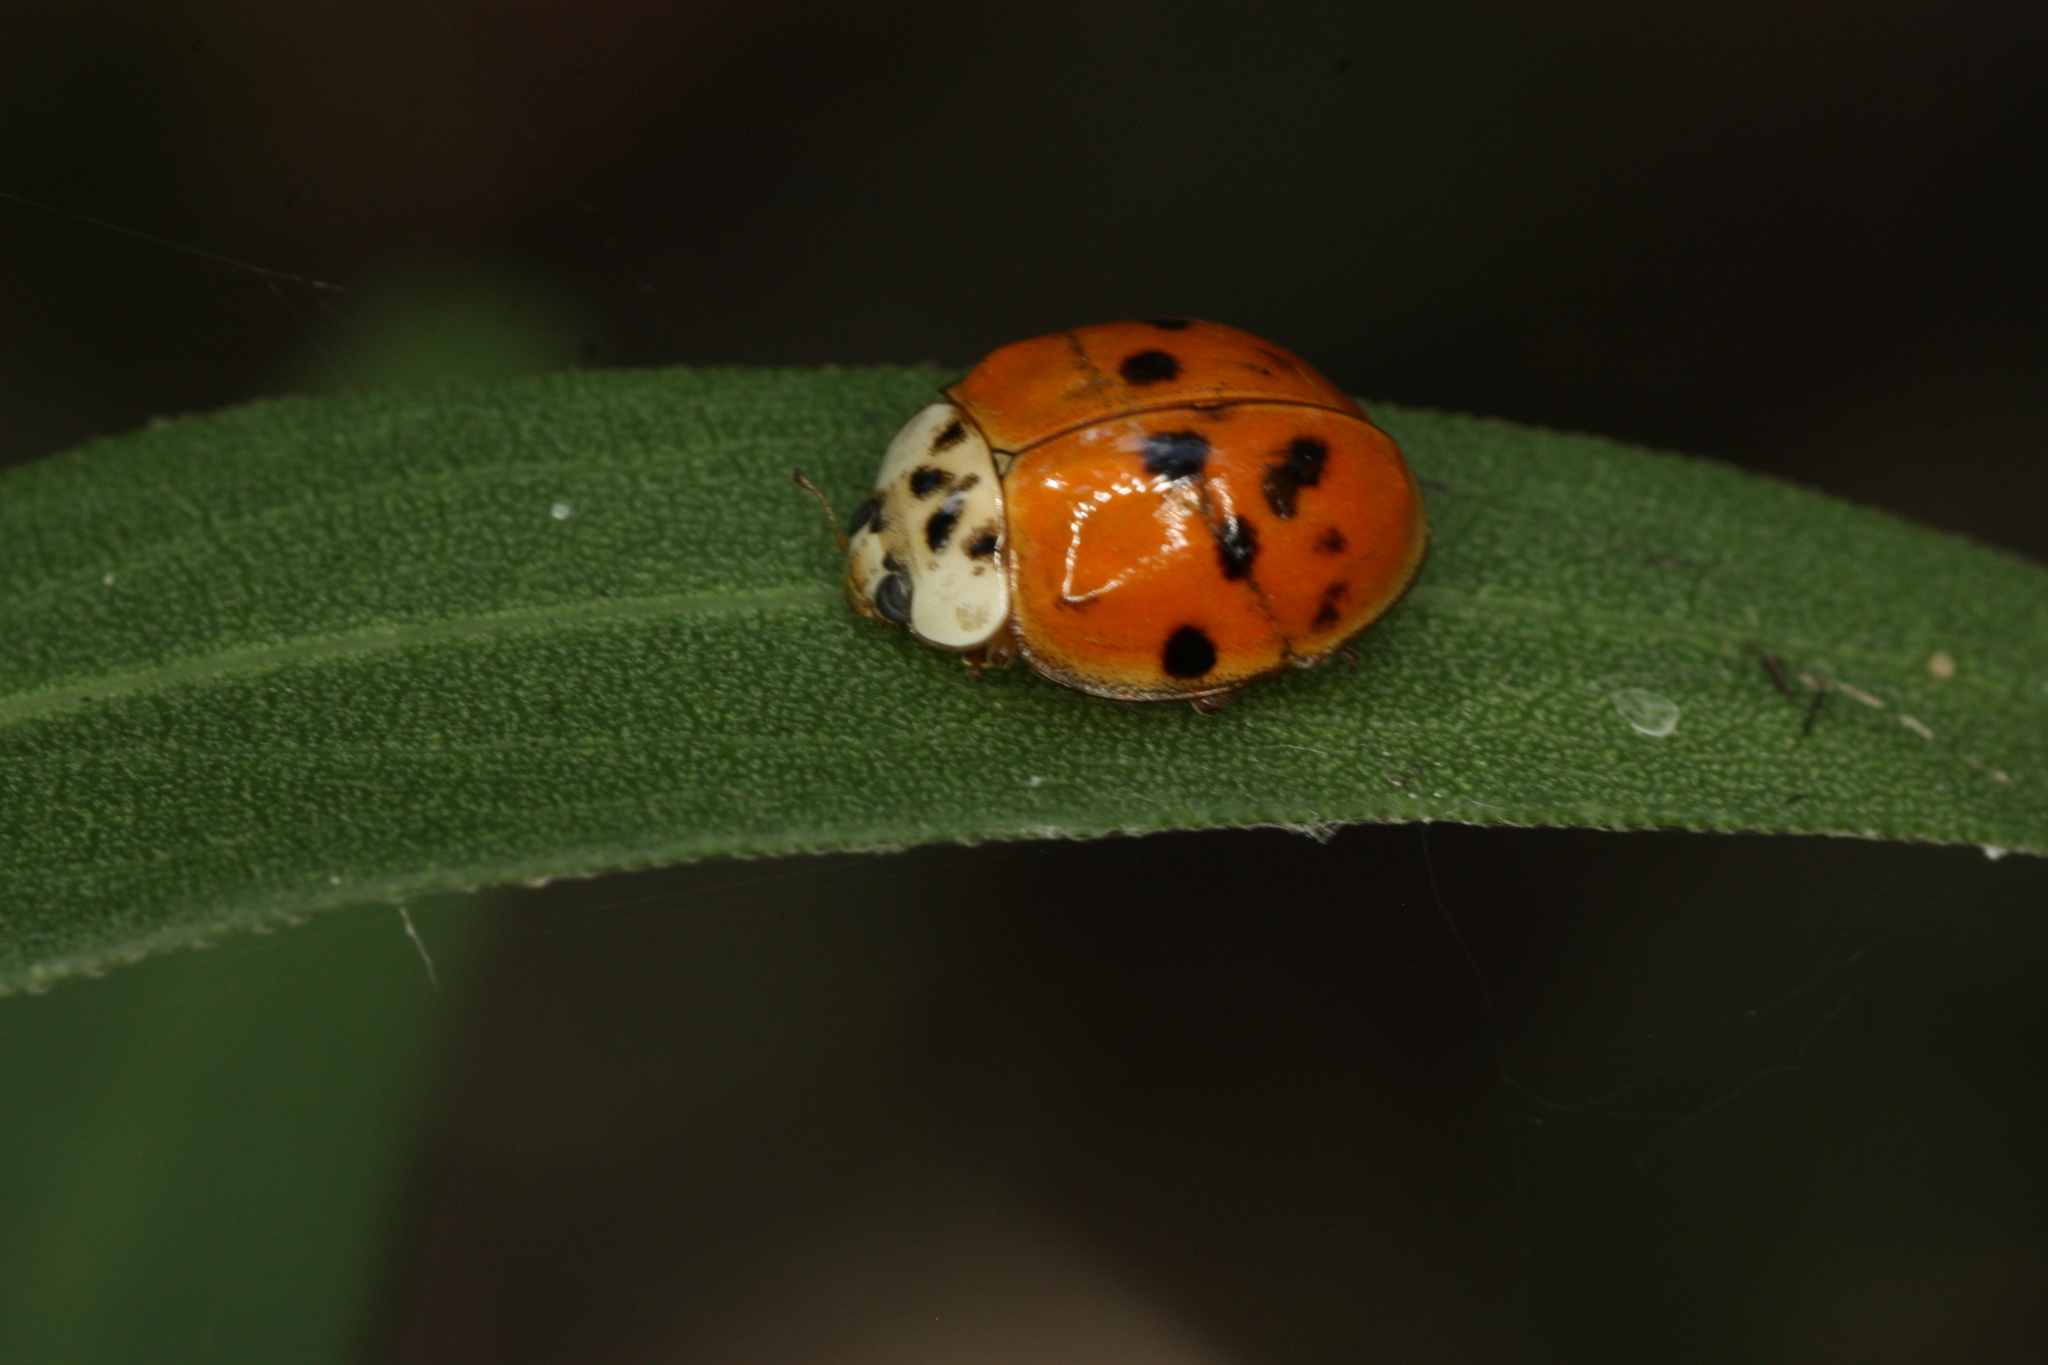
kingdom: Animalia
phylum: Arthropoda
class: Insecta
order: Coleoptera
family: Coccinellidae
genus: Harmonia
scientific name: Harmonia axyridis
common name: Harlequin ladybird
